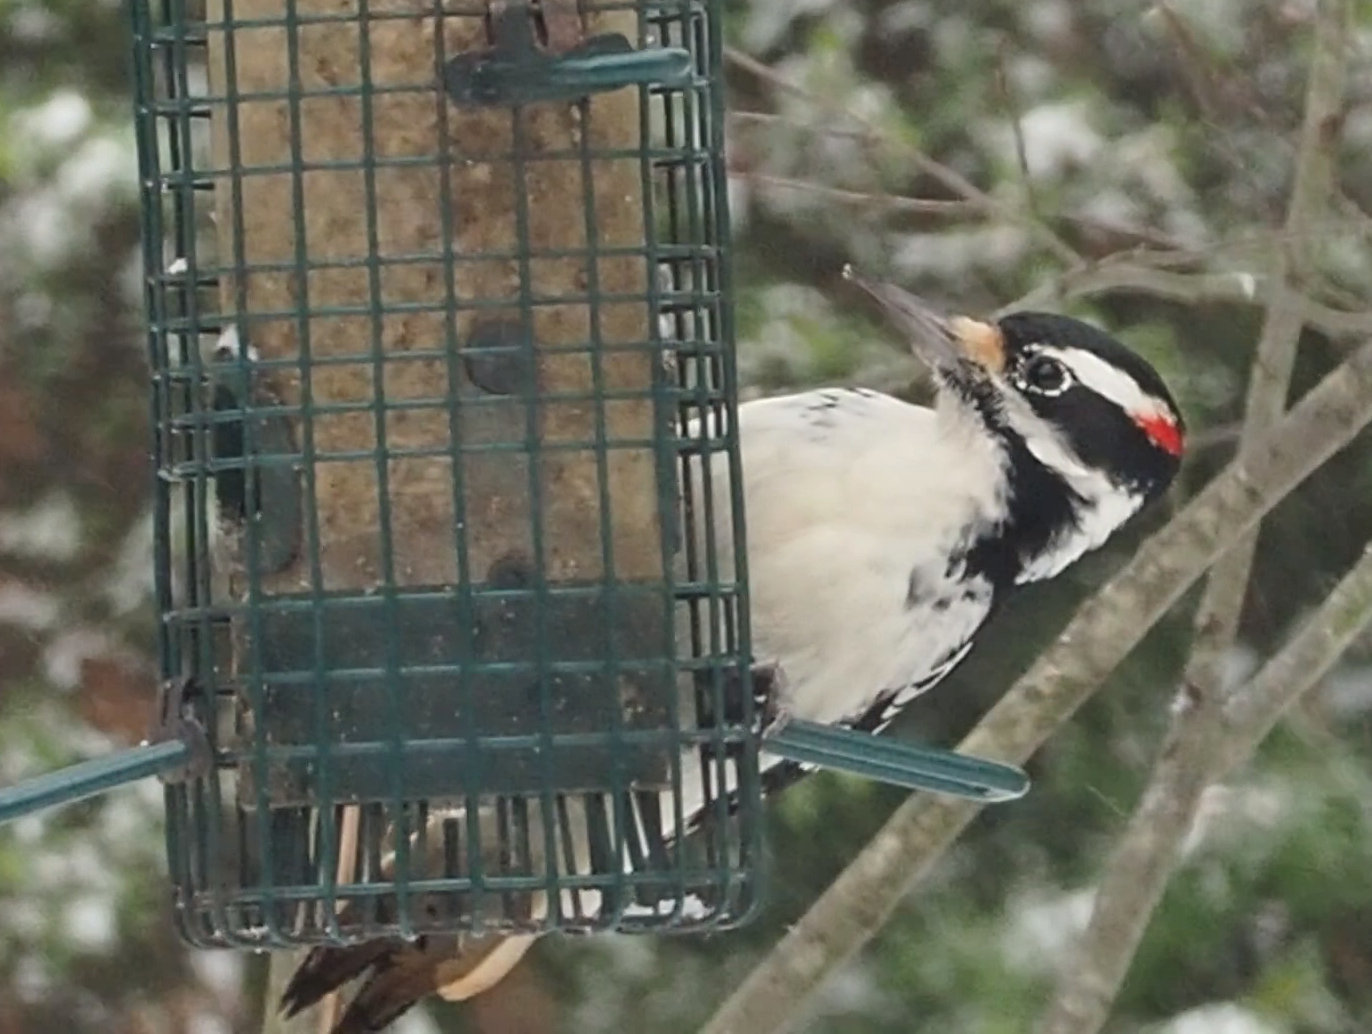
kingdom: Animalia
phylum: Chordata
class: Aves
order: Piciformes
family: Picidae
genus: Leuconotopicus
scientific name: Leuconotopicus villosus
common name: Hairy woodpecker
